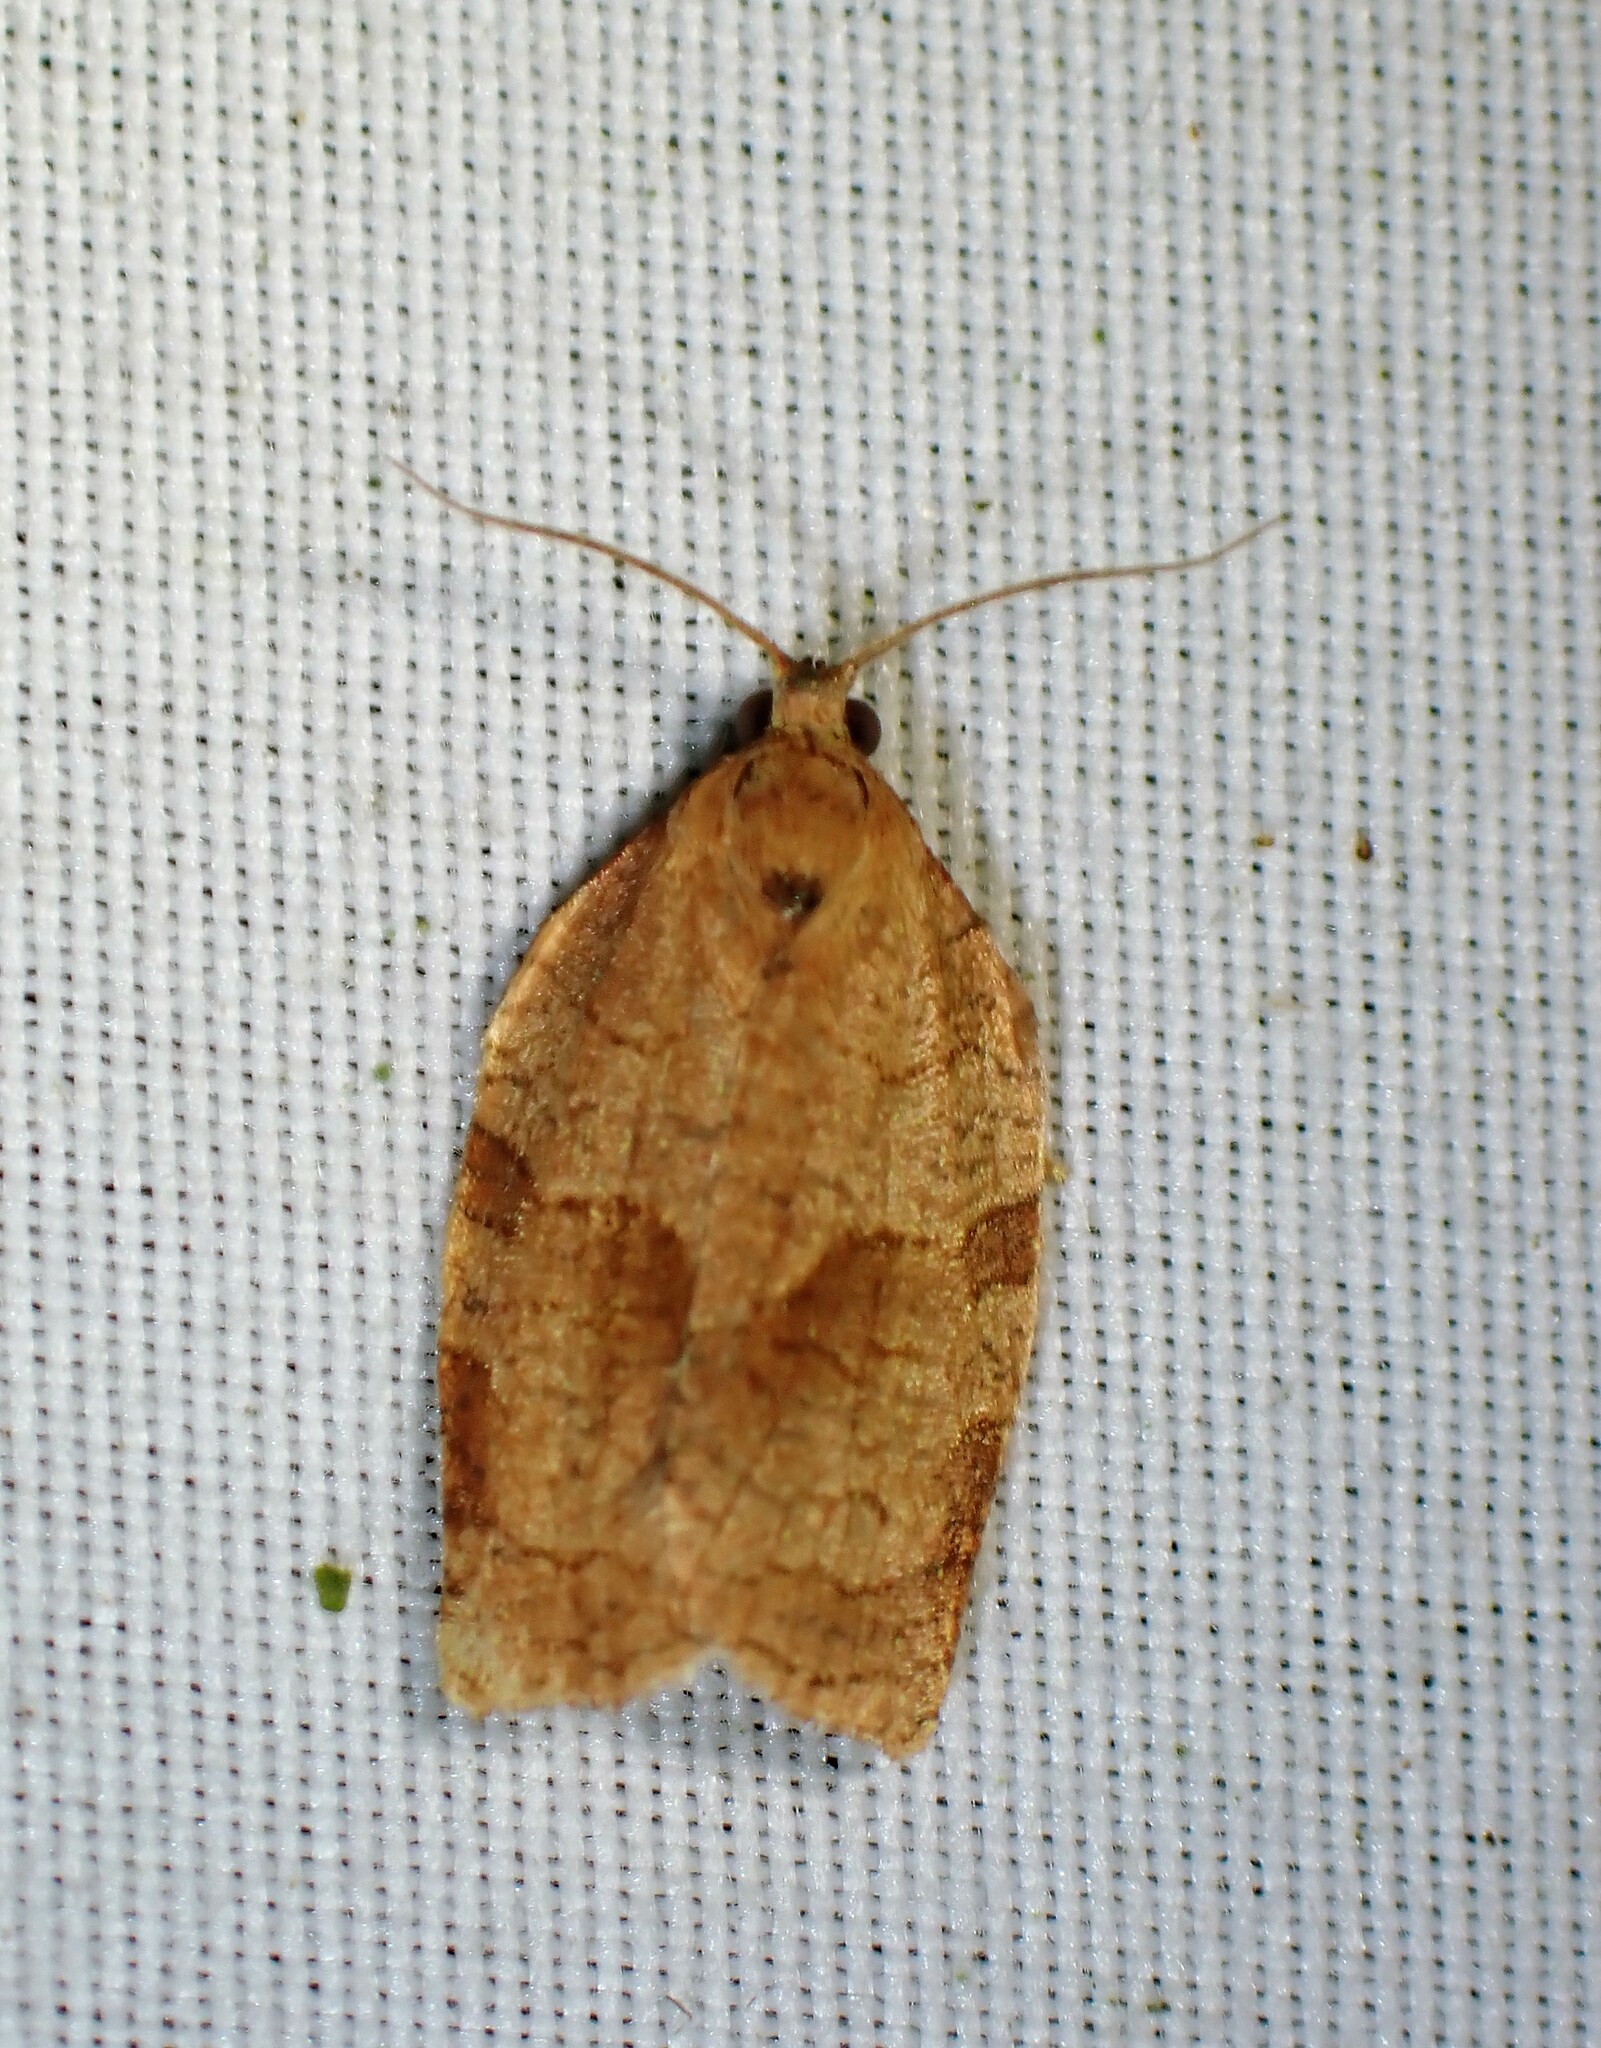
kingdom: Animalia
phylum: Arthropoda
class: Insecta
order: Lepidoptera
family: Tortricidae
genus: Choristoneura
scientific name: Choristoneura rosaceana
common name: Oblique-banded leafroller moth
